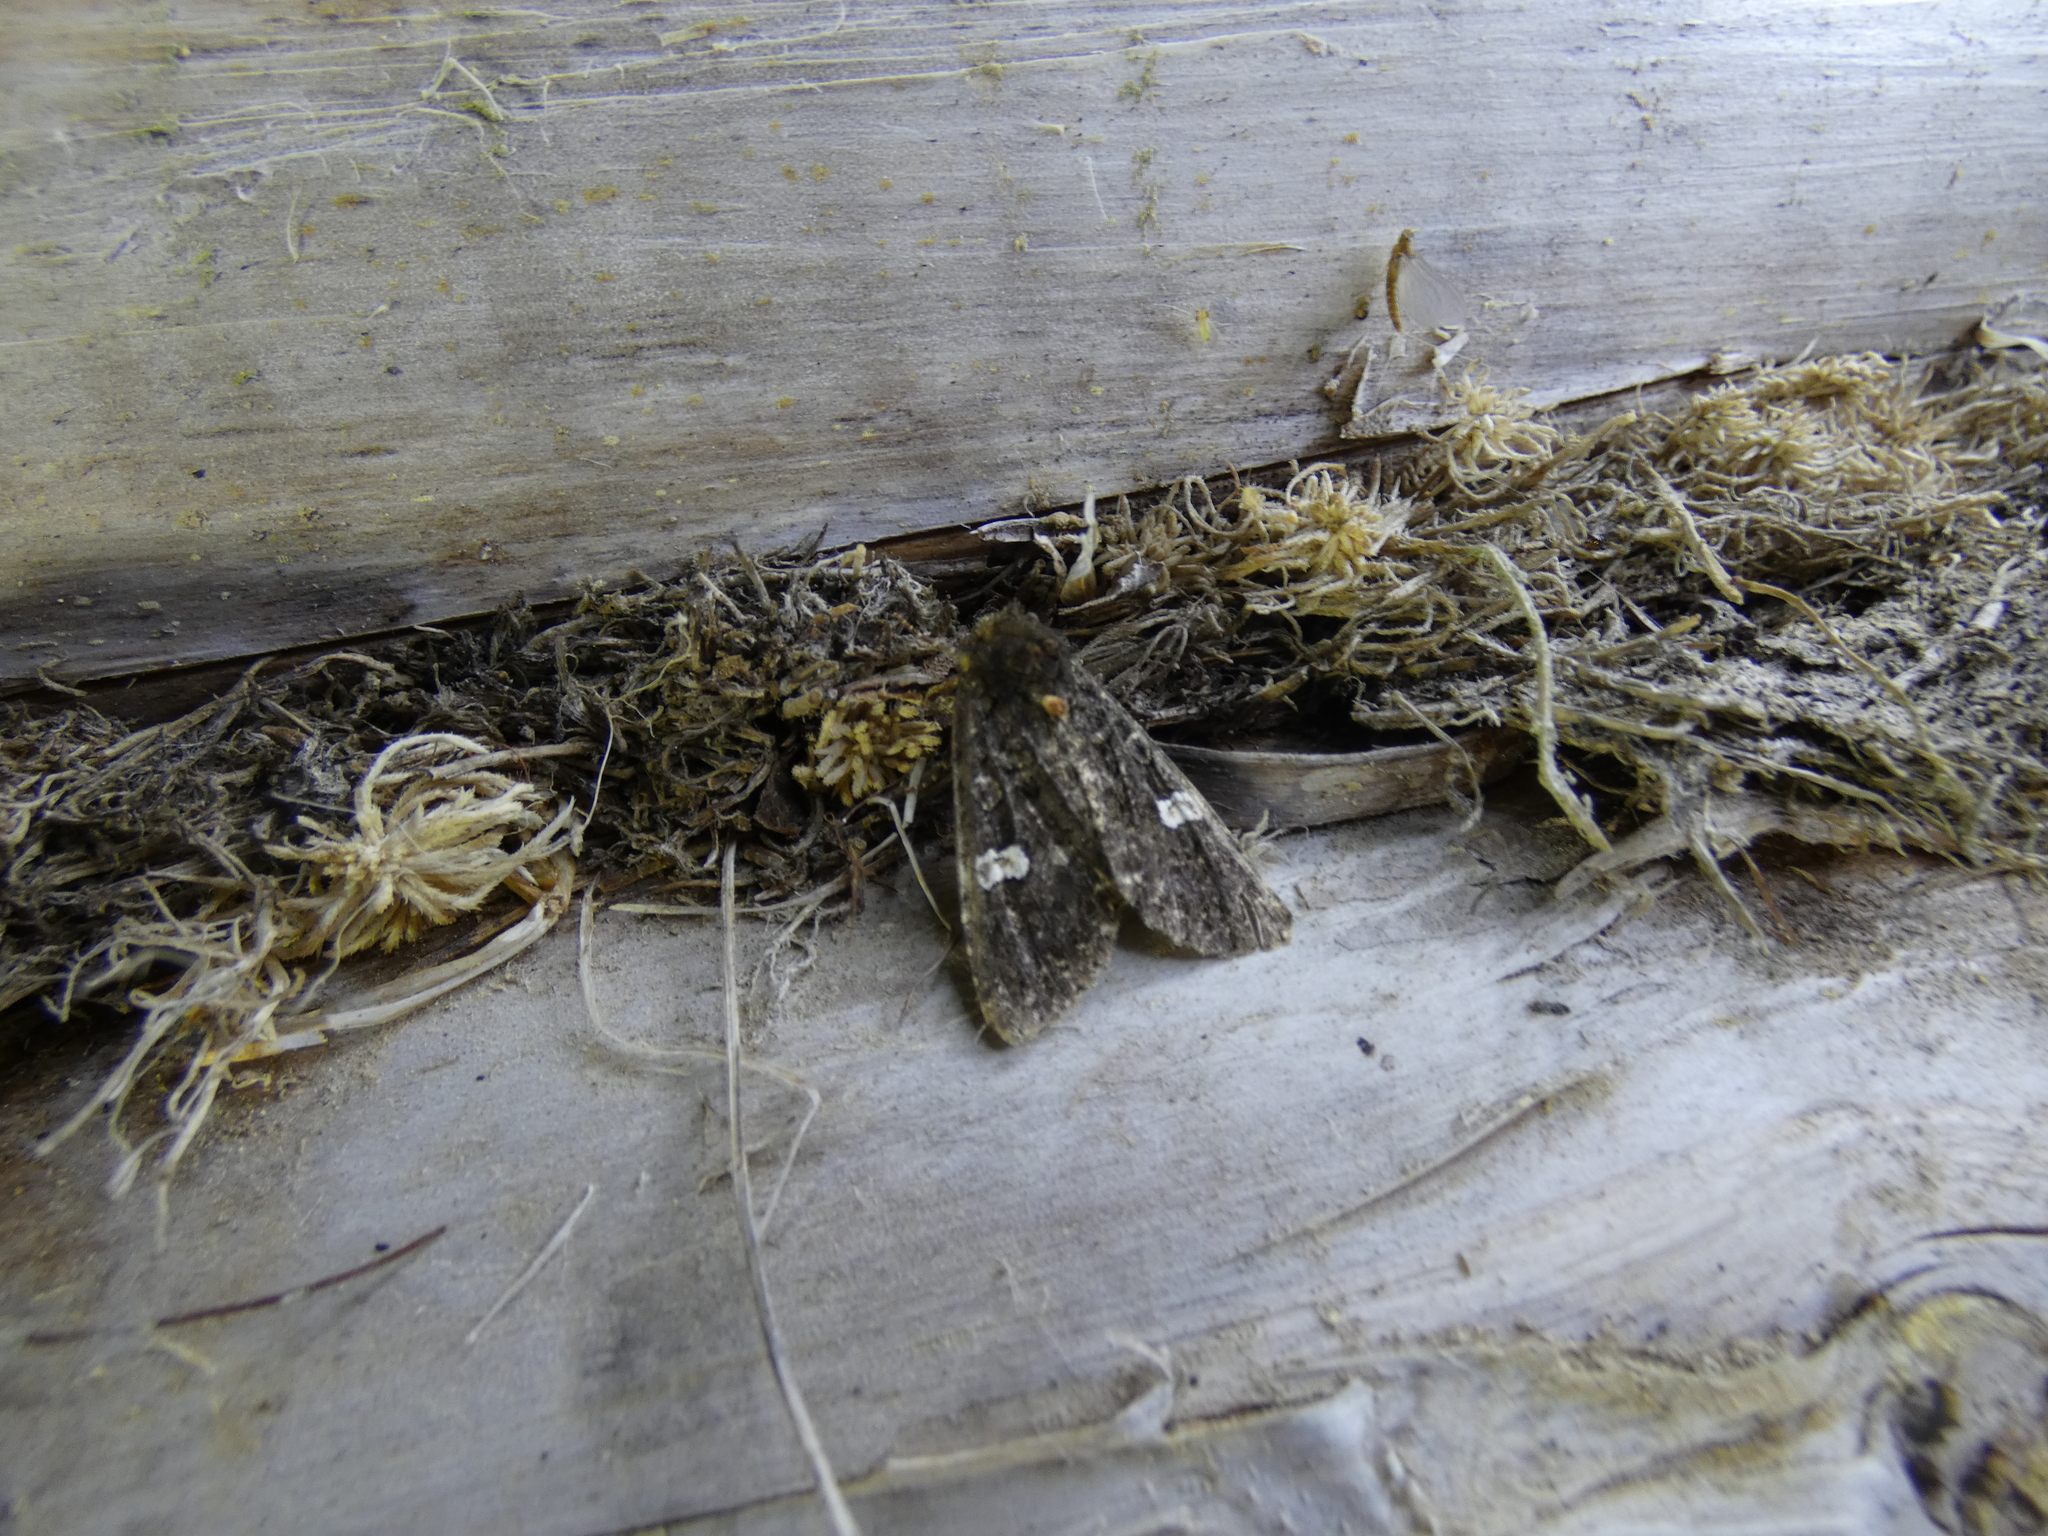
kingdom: Animalia
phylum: Arthropoda
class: Insecta
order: Lepidoptera
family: Noctuidae
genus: Melanchra
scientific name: Melanchra persicariae
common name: Dot moth
